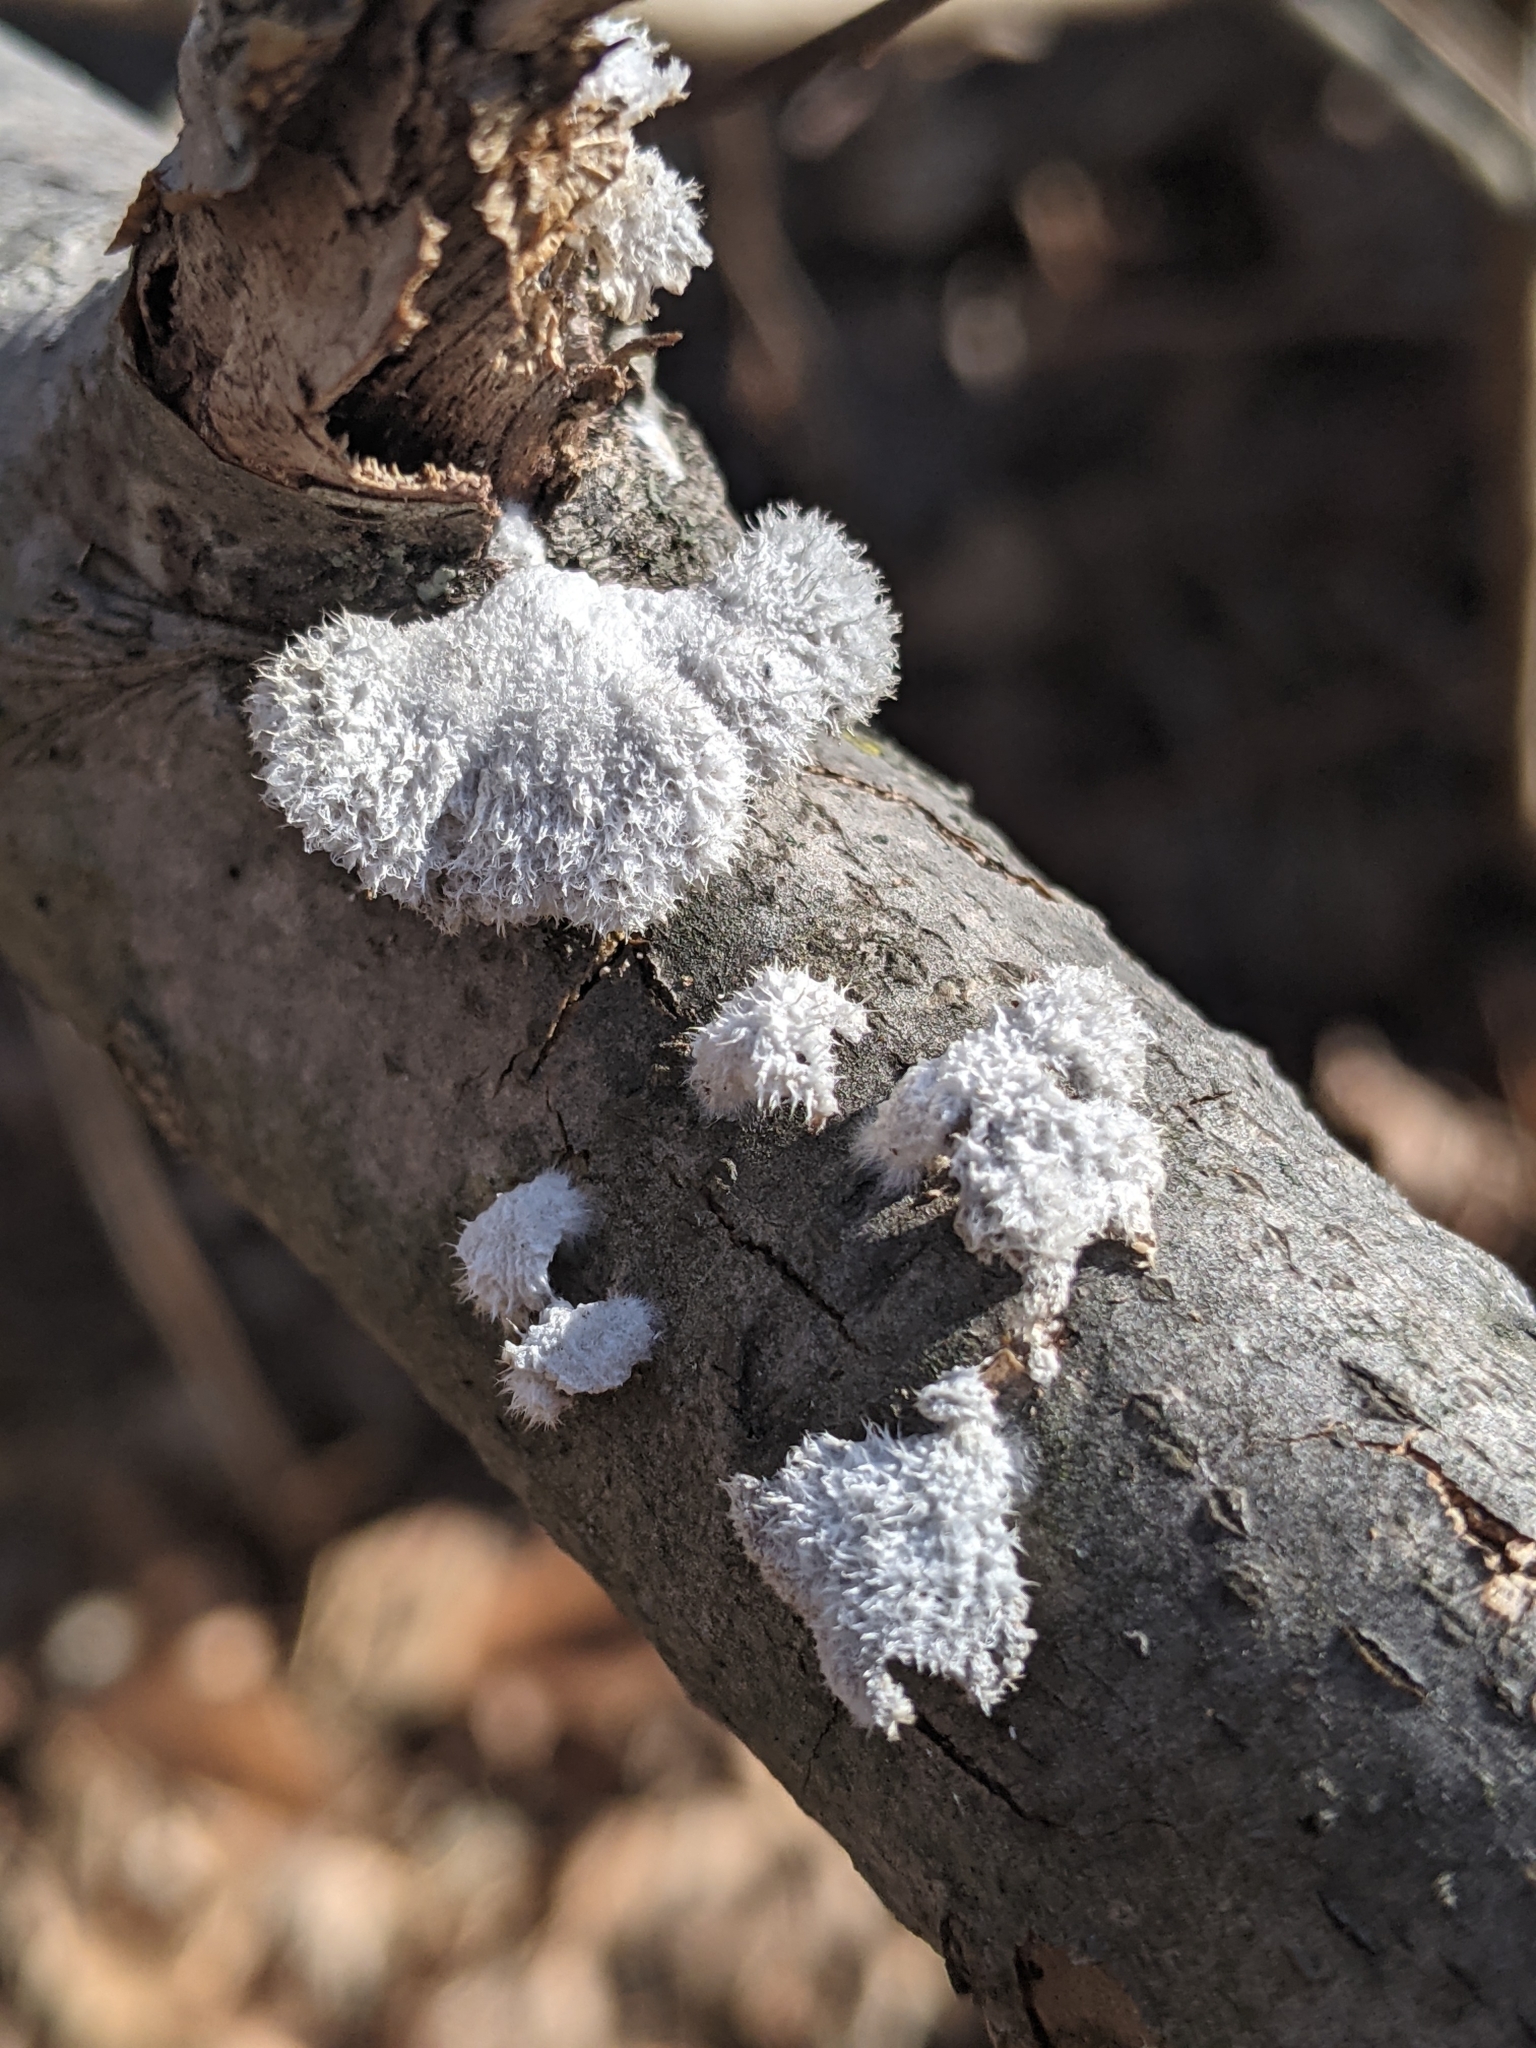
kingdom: Fungi
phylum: Basidiomycota
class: Agaricomycetes
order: Agaricales
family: Schizophyllaceae
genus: Schizophyllum
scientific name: Schizophyllum commune
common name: Common porecrust
